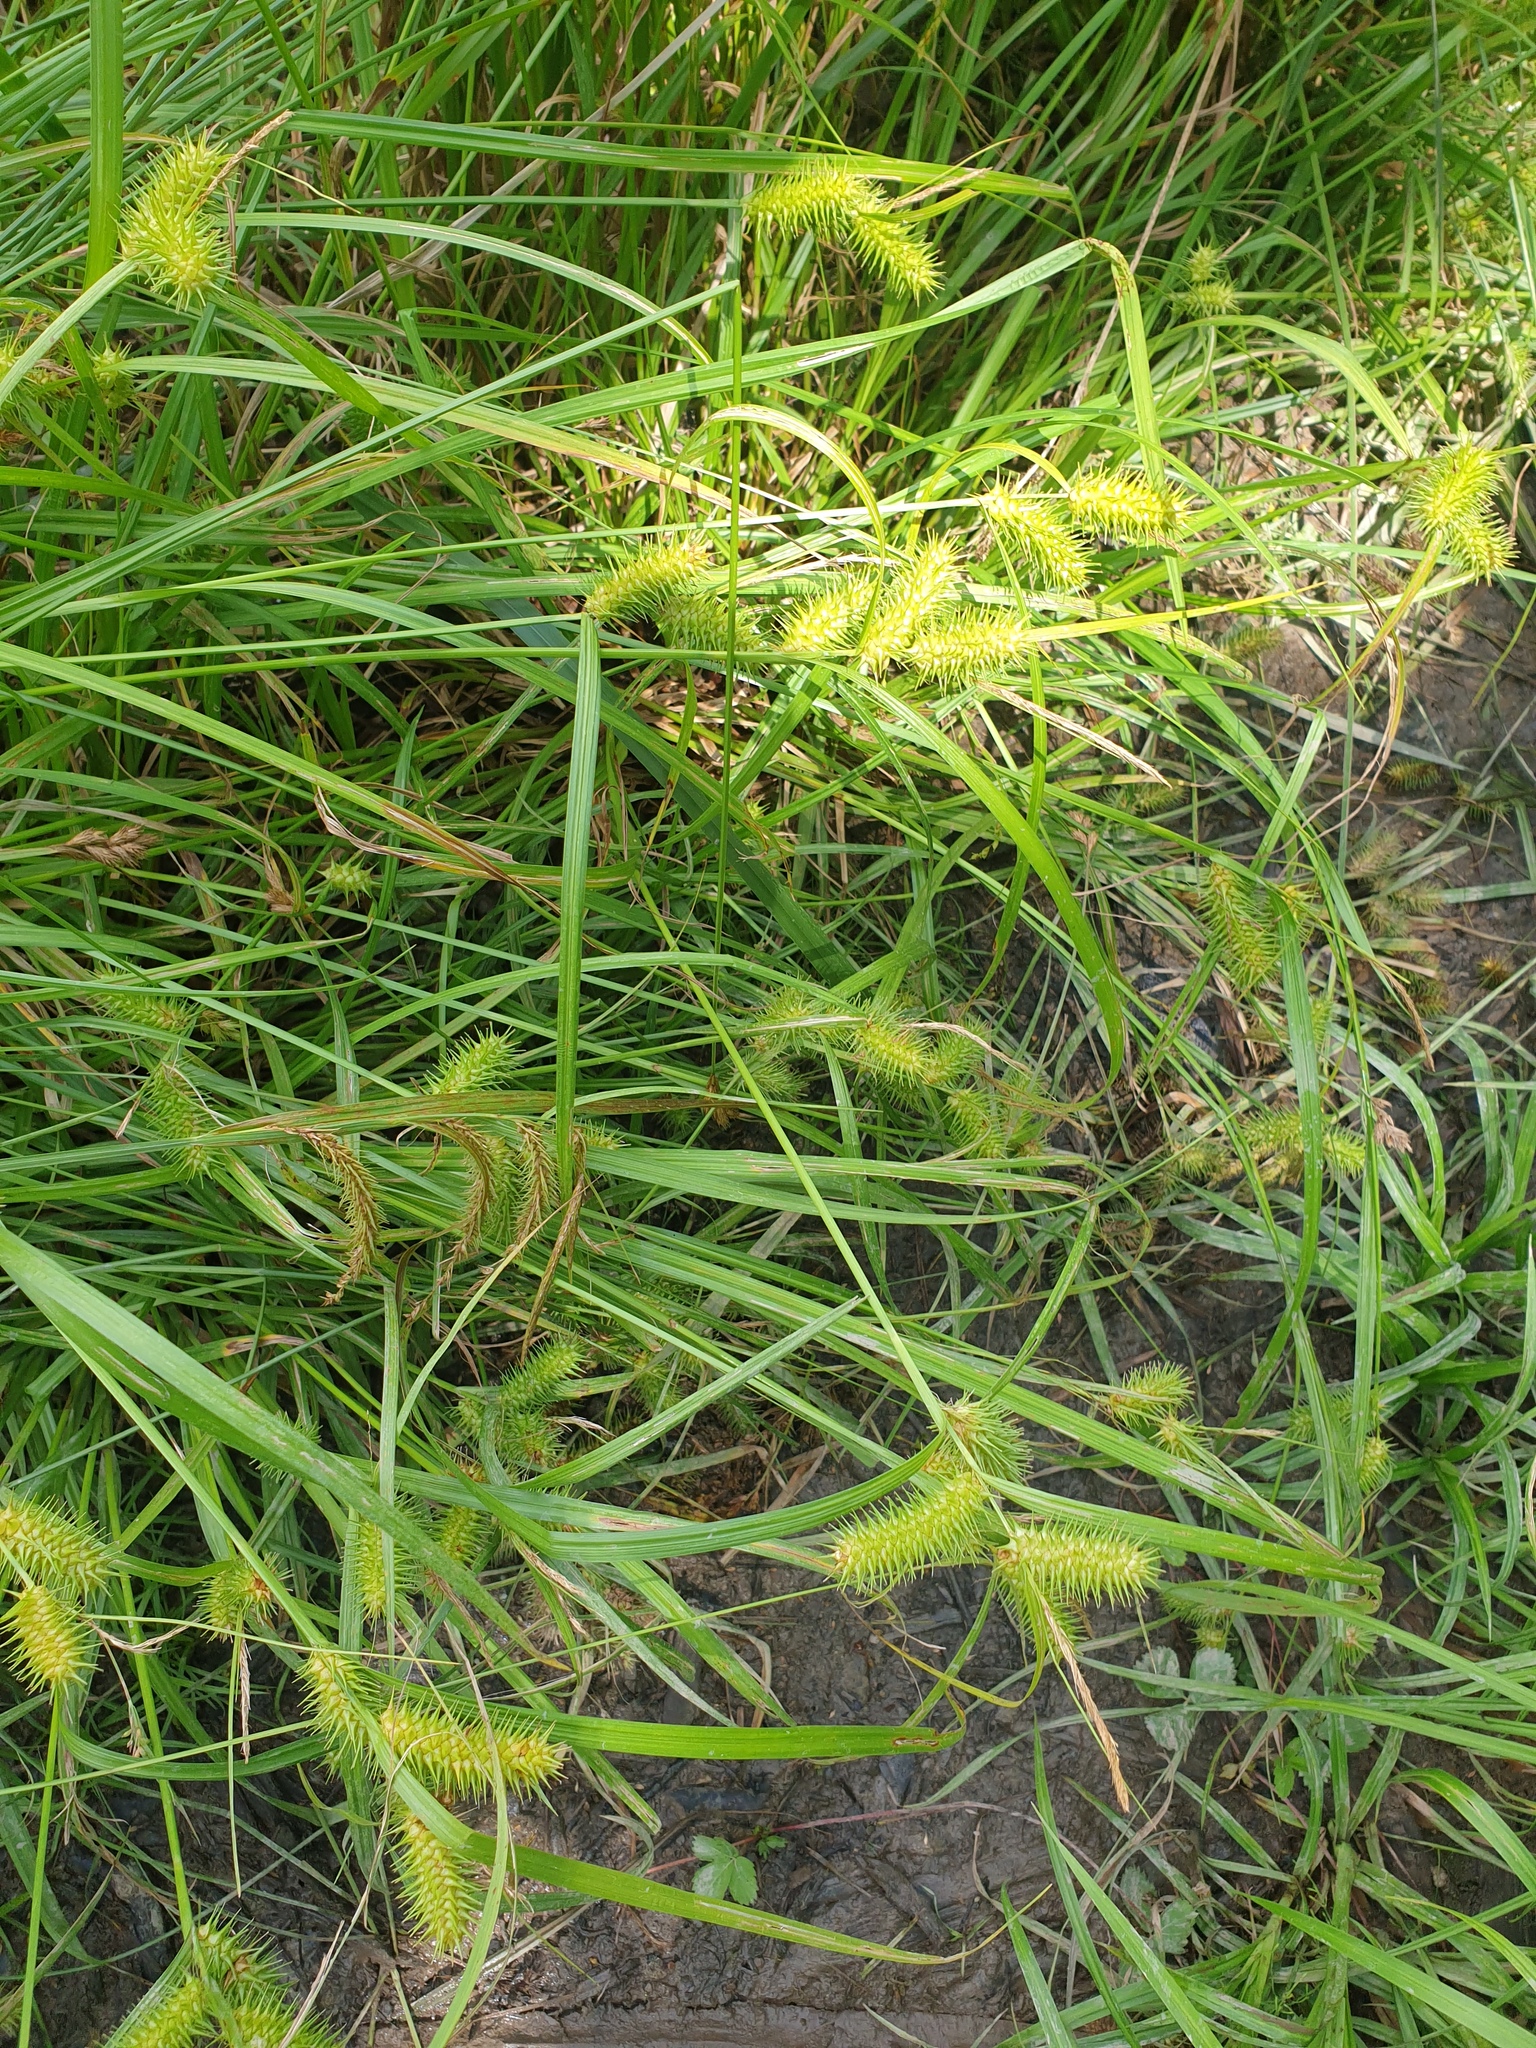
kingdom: Plantae
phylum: Tracheophyta
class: Liliopsida
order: Poales
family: Cyperaceae
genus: Carex
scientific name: Carex lurida
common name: Sallow sedge
